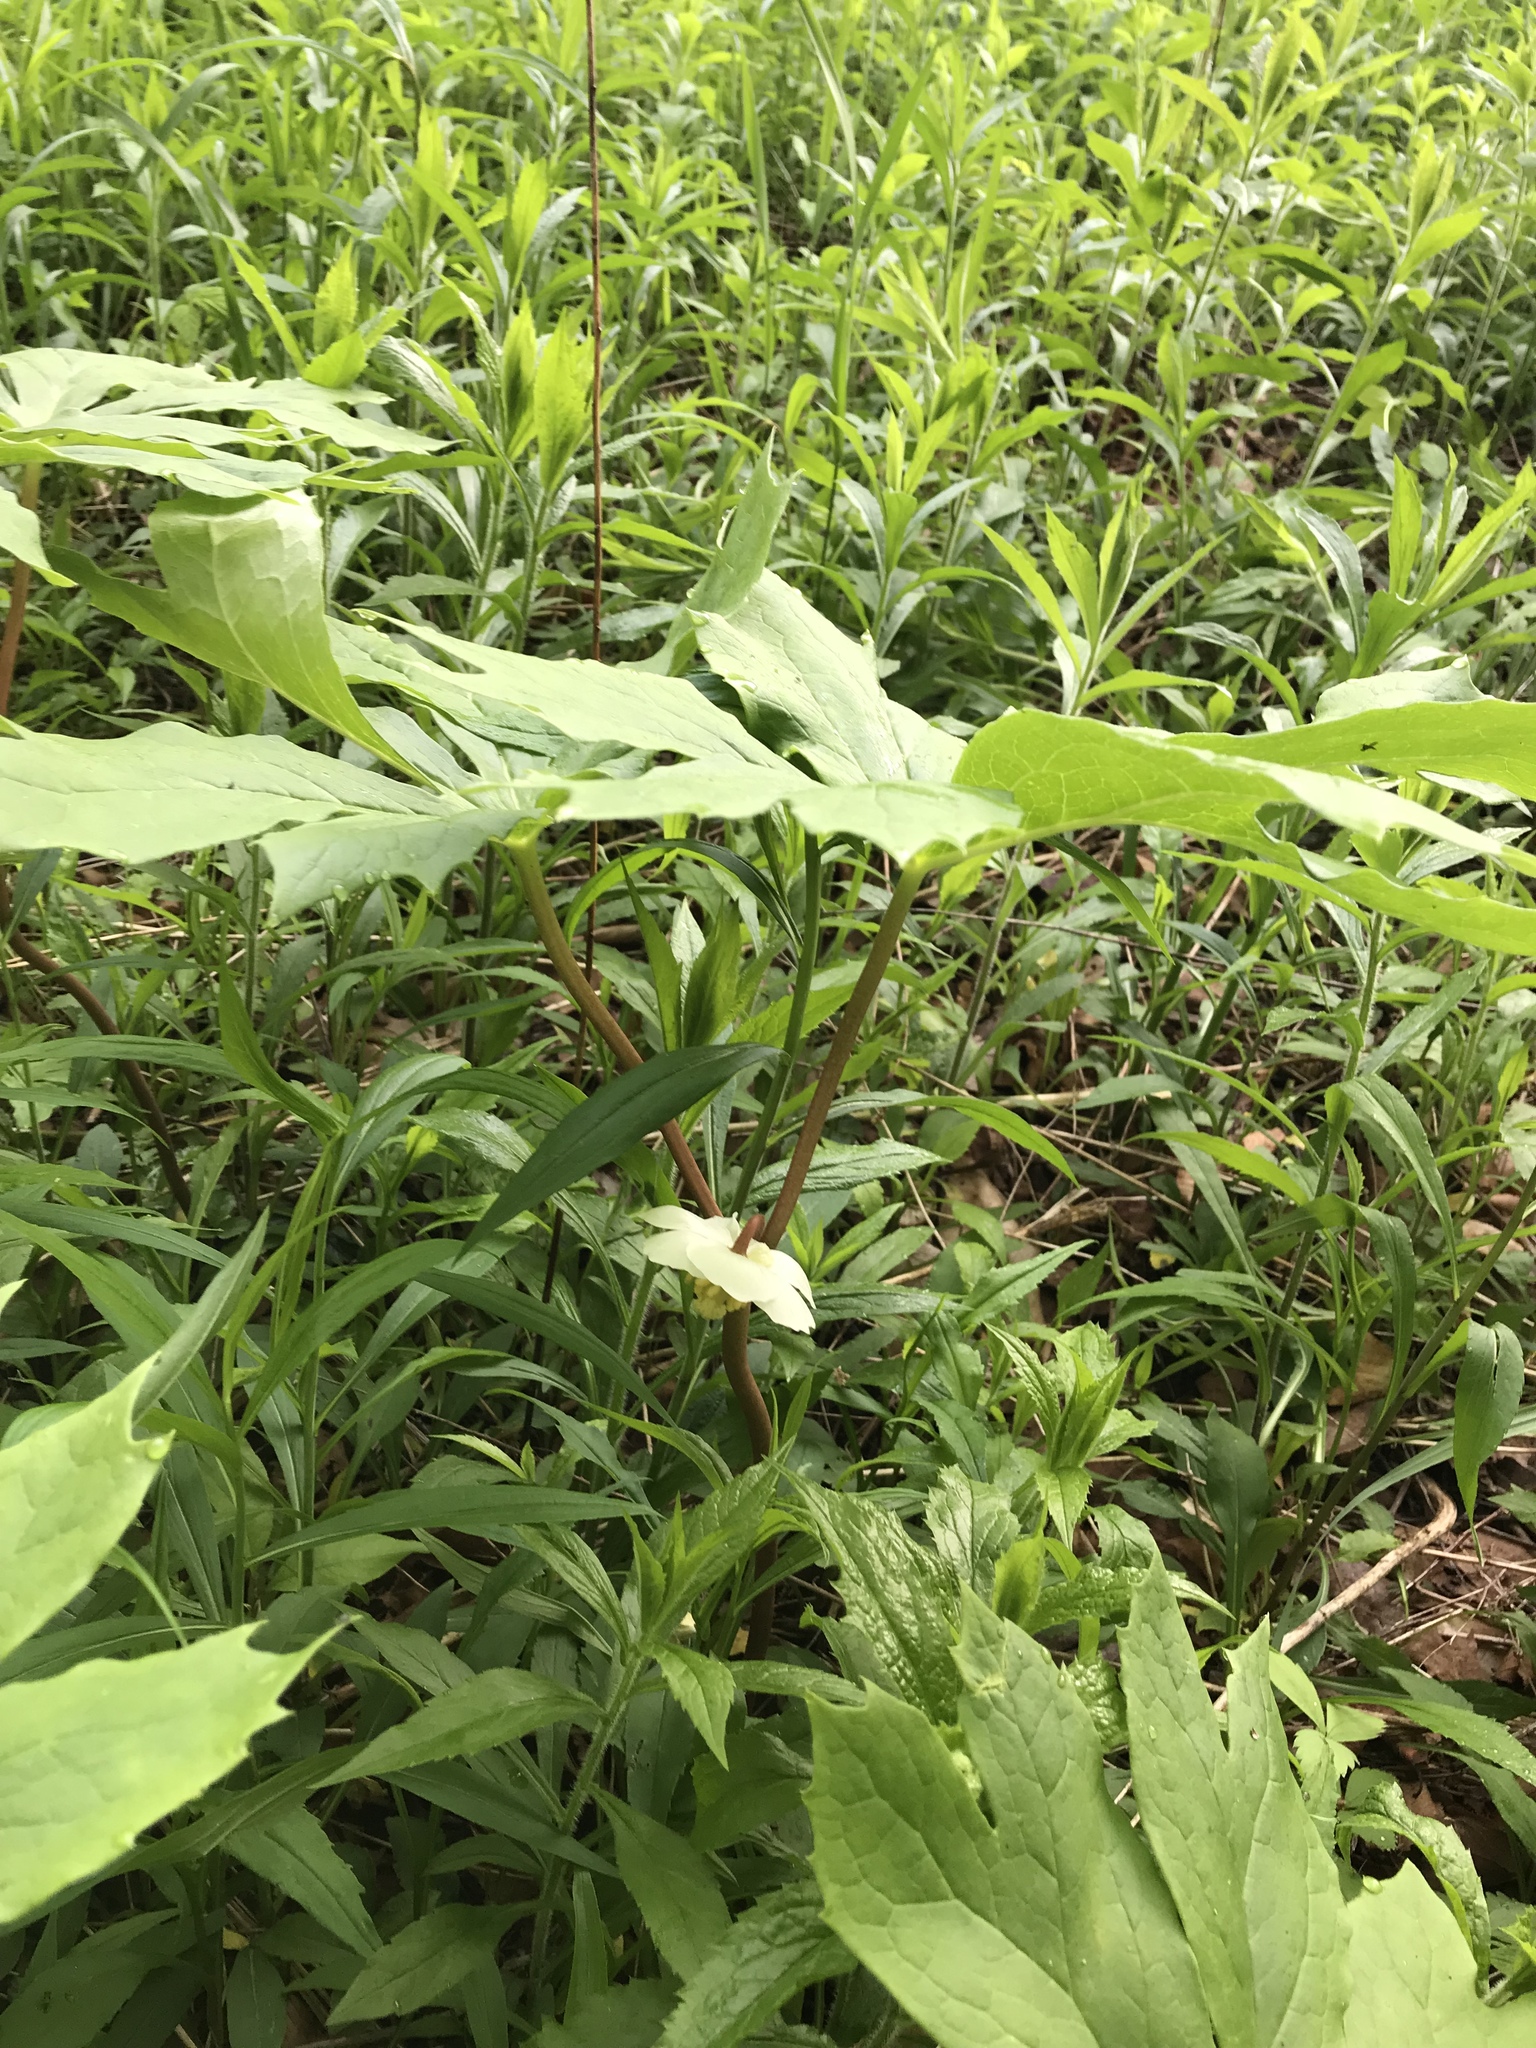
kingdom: Plantae
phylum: Tracheophyta
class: Magnoliopsida
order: Ranunculales
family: Berberidaceae
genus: Podophyllum
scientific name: Podophyllum peltatum
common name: Wild mandrake
